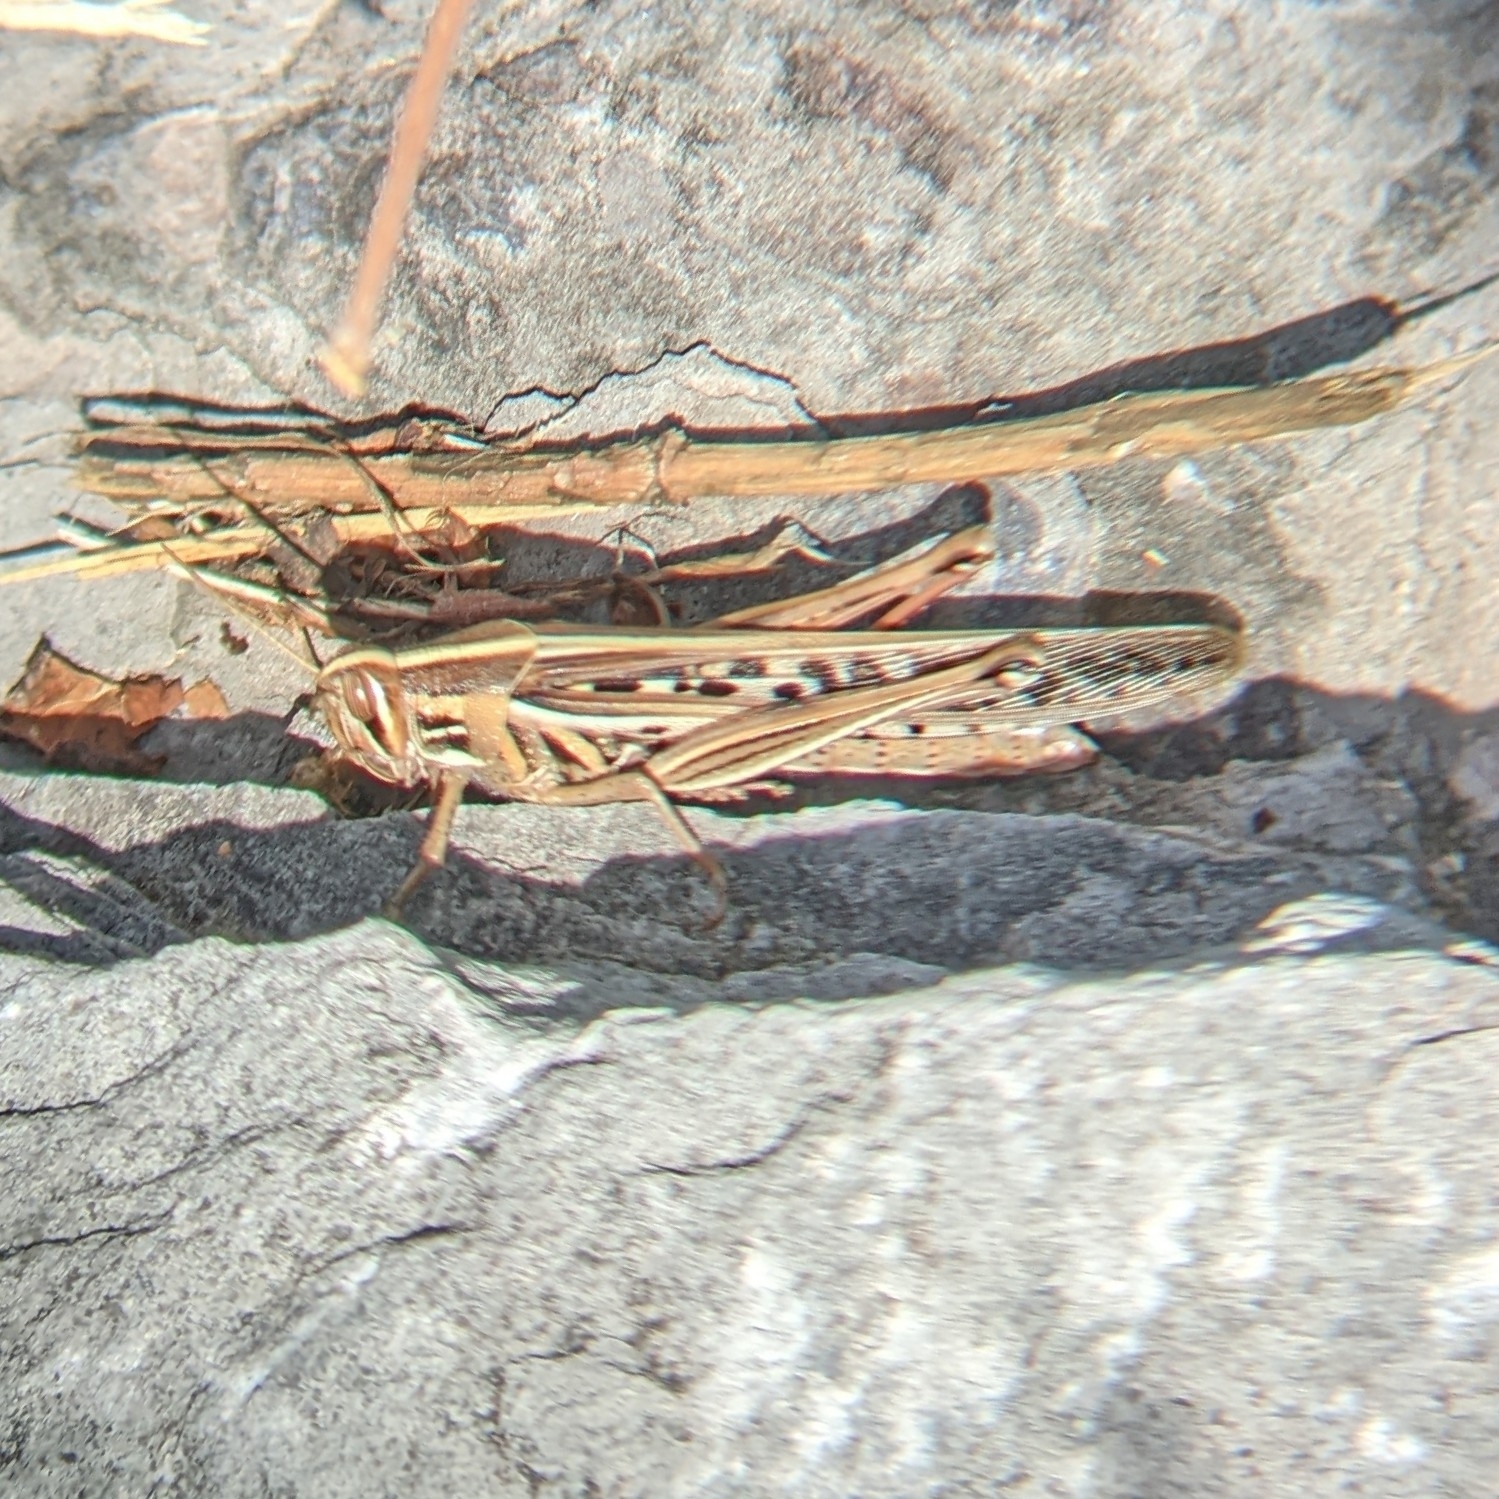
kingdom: Animalia
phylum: Arthropoda
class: Insecta
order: Orthoptera
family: Acrididae
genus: Schistocerca
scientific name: Schistocerca americana
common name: American bird locust
